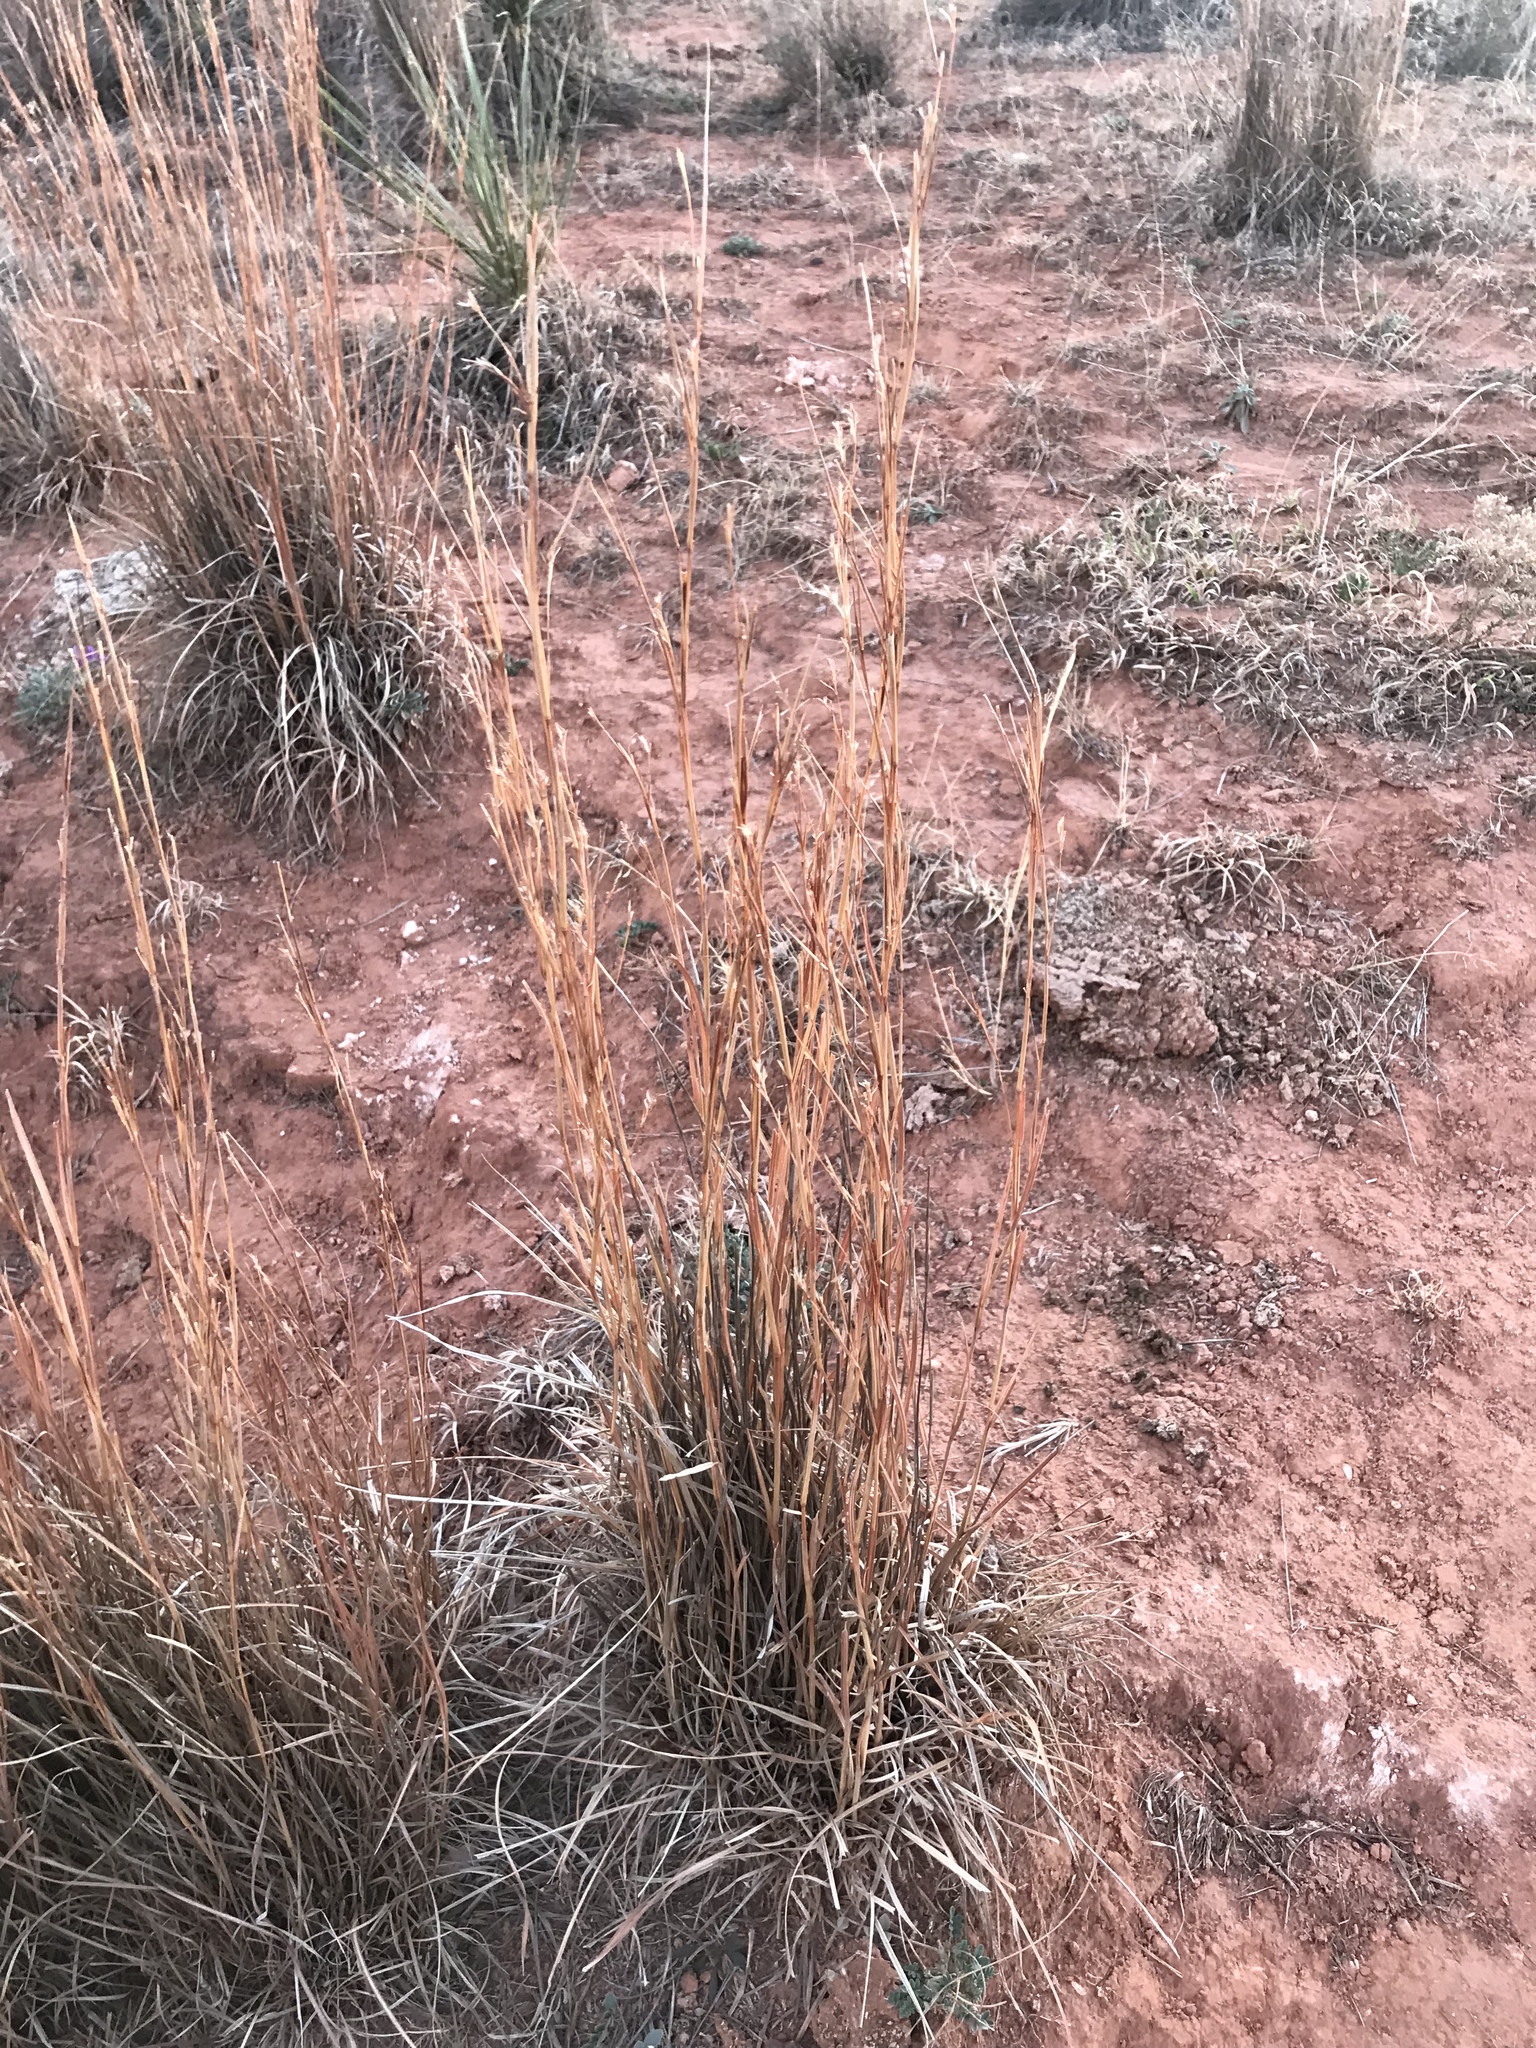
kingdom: Plantae
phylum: Tracheophyta
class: Liliopsida
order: Poales
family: Poaceae
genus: Schizachyrium
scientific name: Schizachyrium scoparium
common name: Little bluestem
